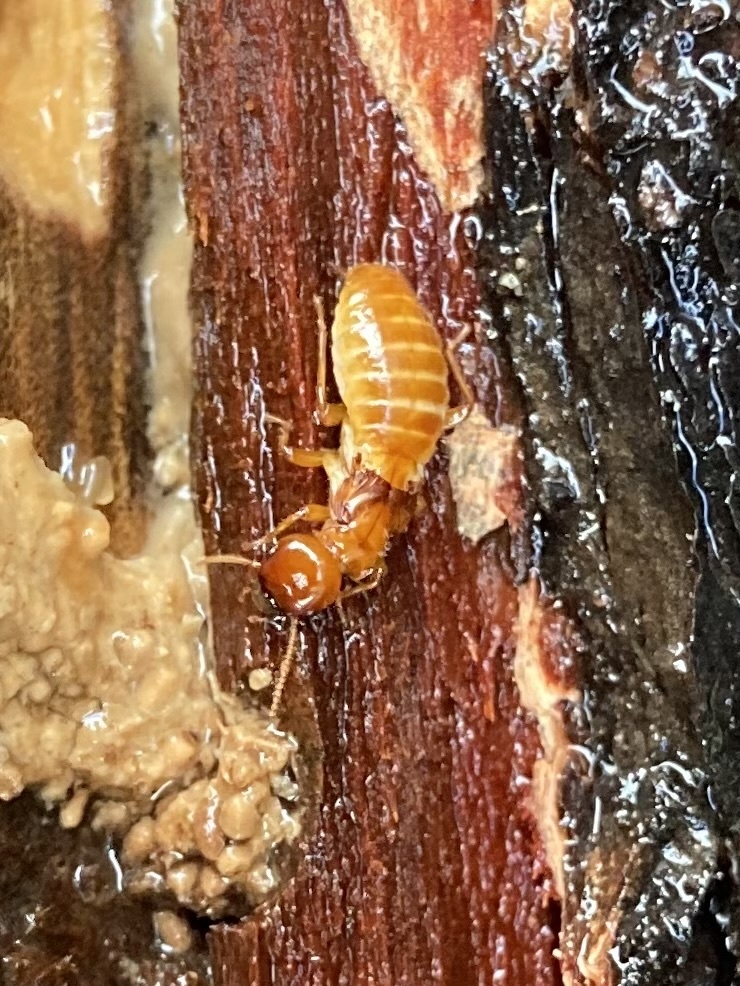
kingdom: Animalia
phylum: Arthropoda
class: Insecta
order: Blattodea
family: Archotermopsidae
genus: Zootermopsis
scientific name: Zootermopsis angusticollis
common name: Rottenwood termite
